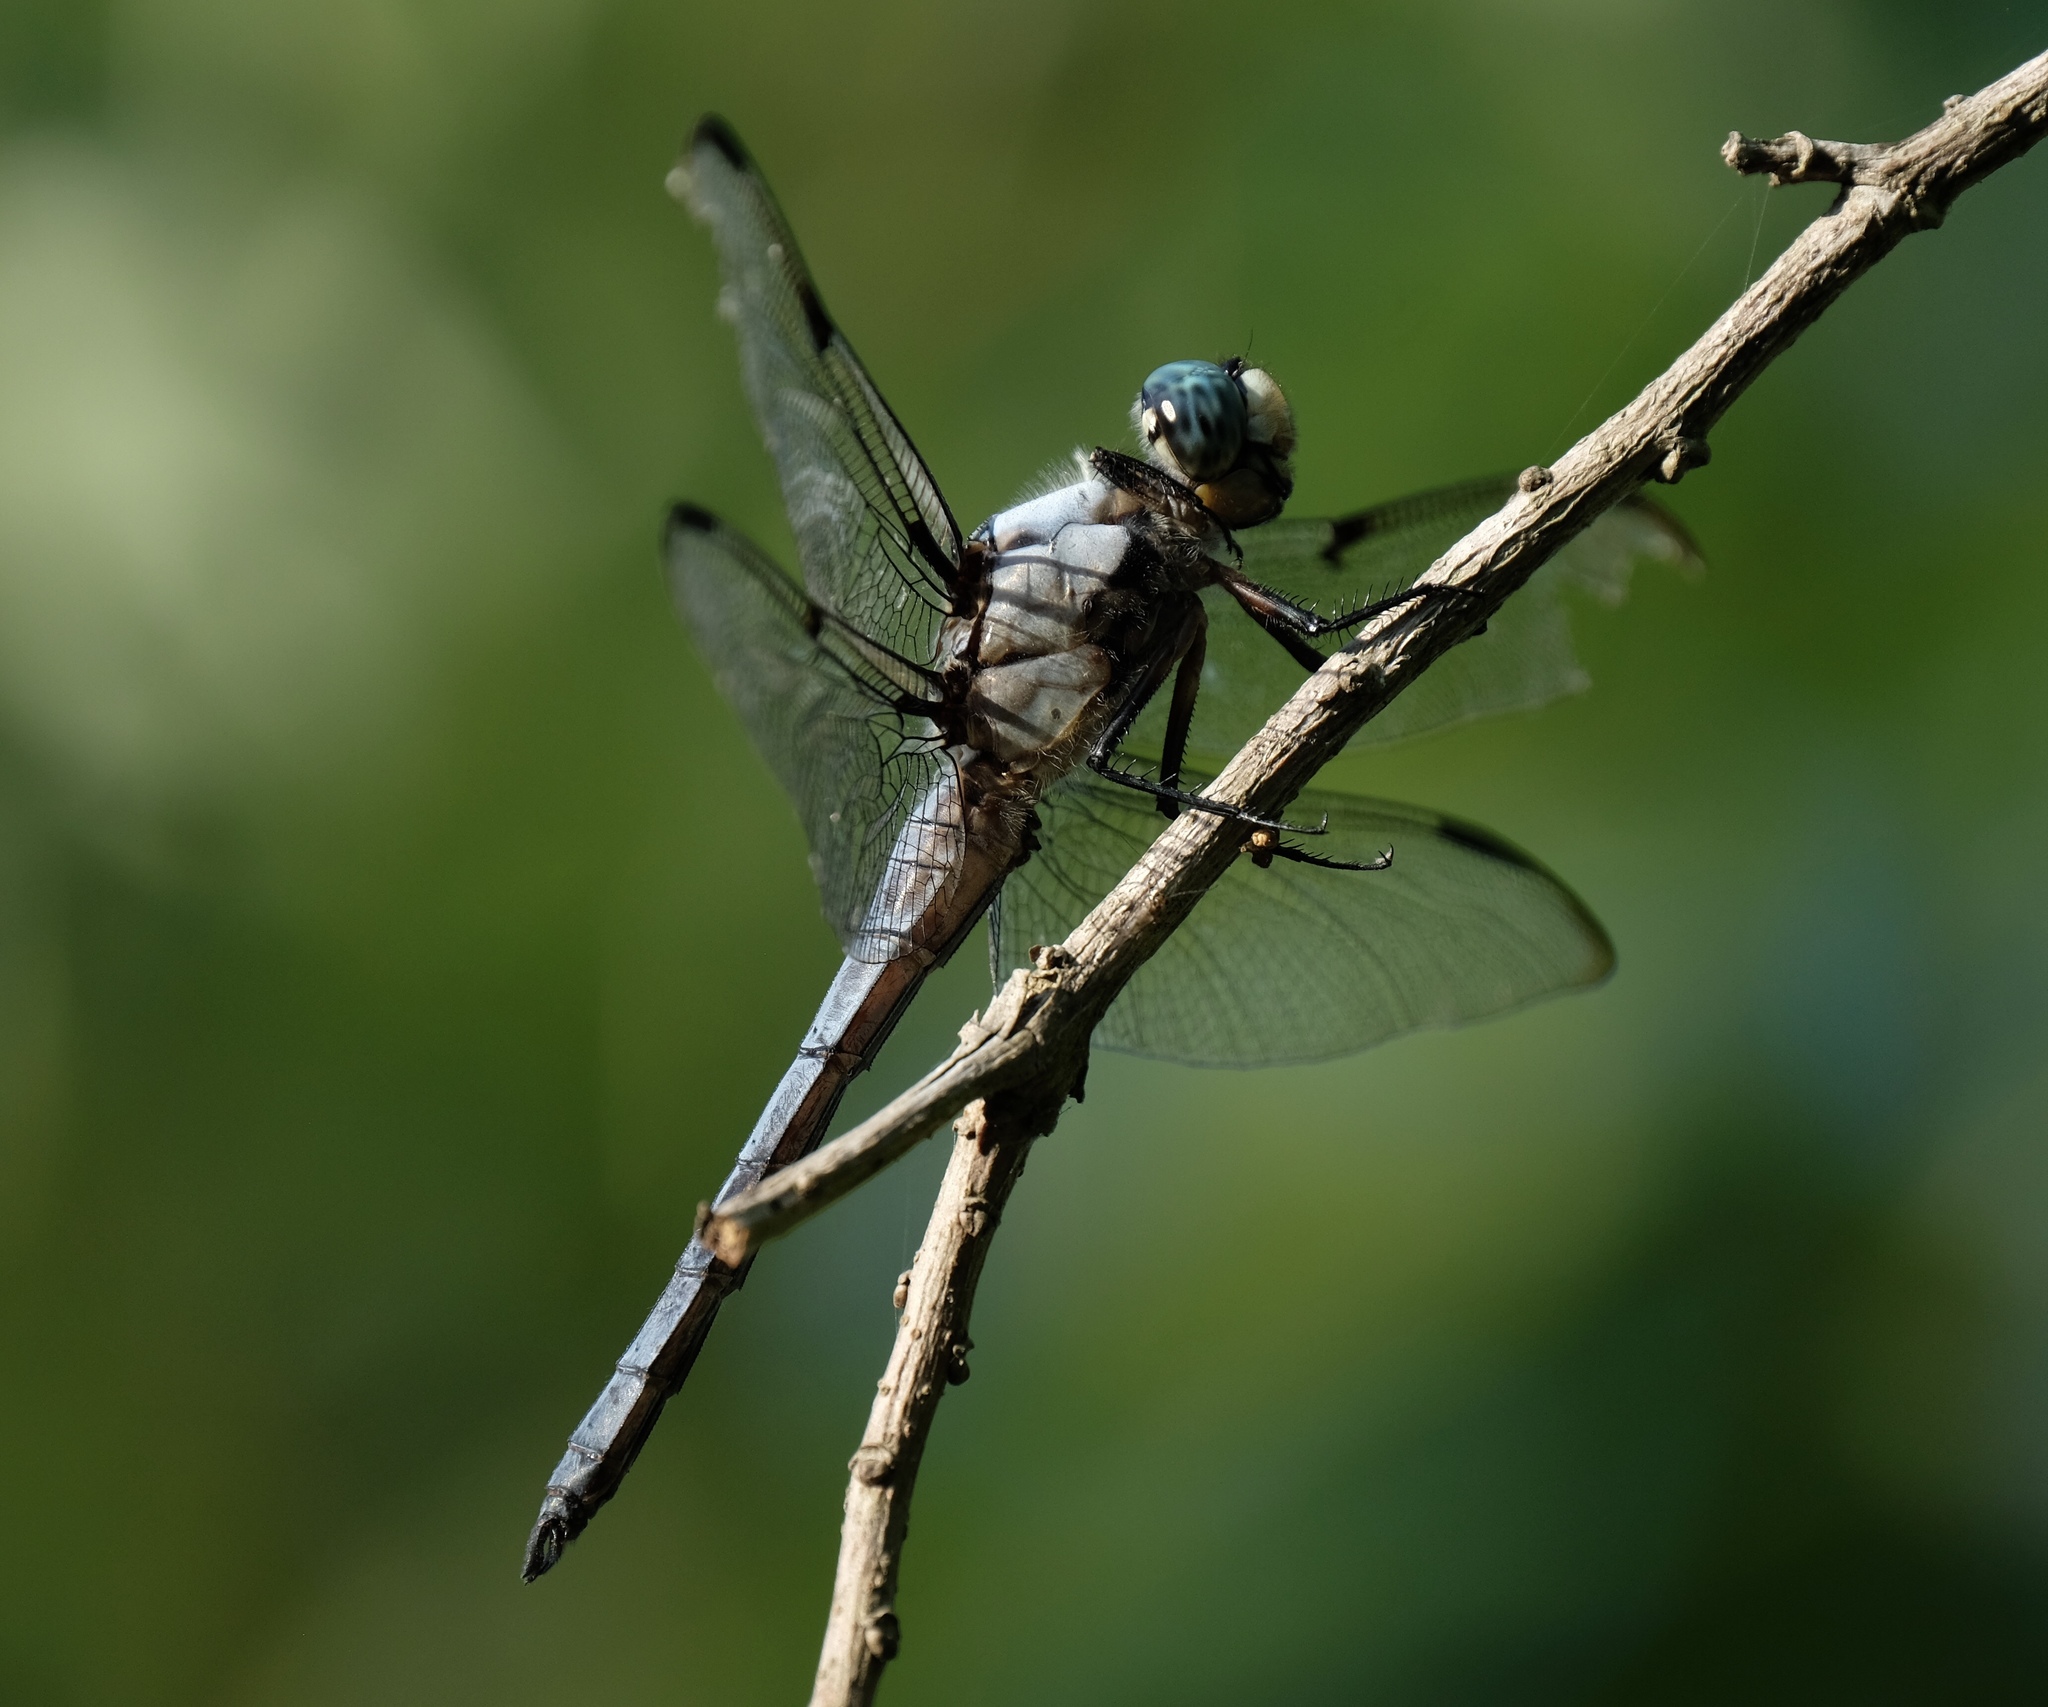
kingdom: Animalia
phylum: Arthropoda
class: Insecta
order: Odonata
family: Libellulidae
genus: Libellula
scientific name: Libellula vibrans
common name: Great blue skimmer
